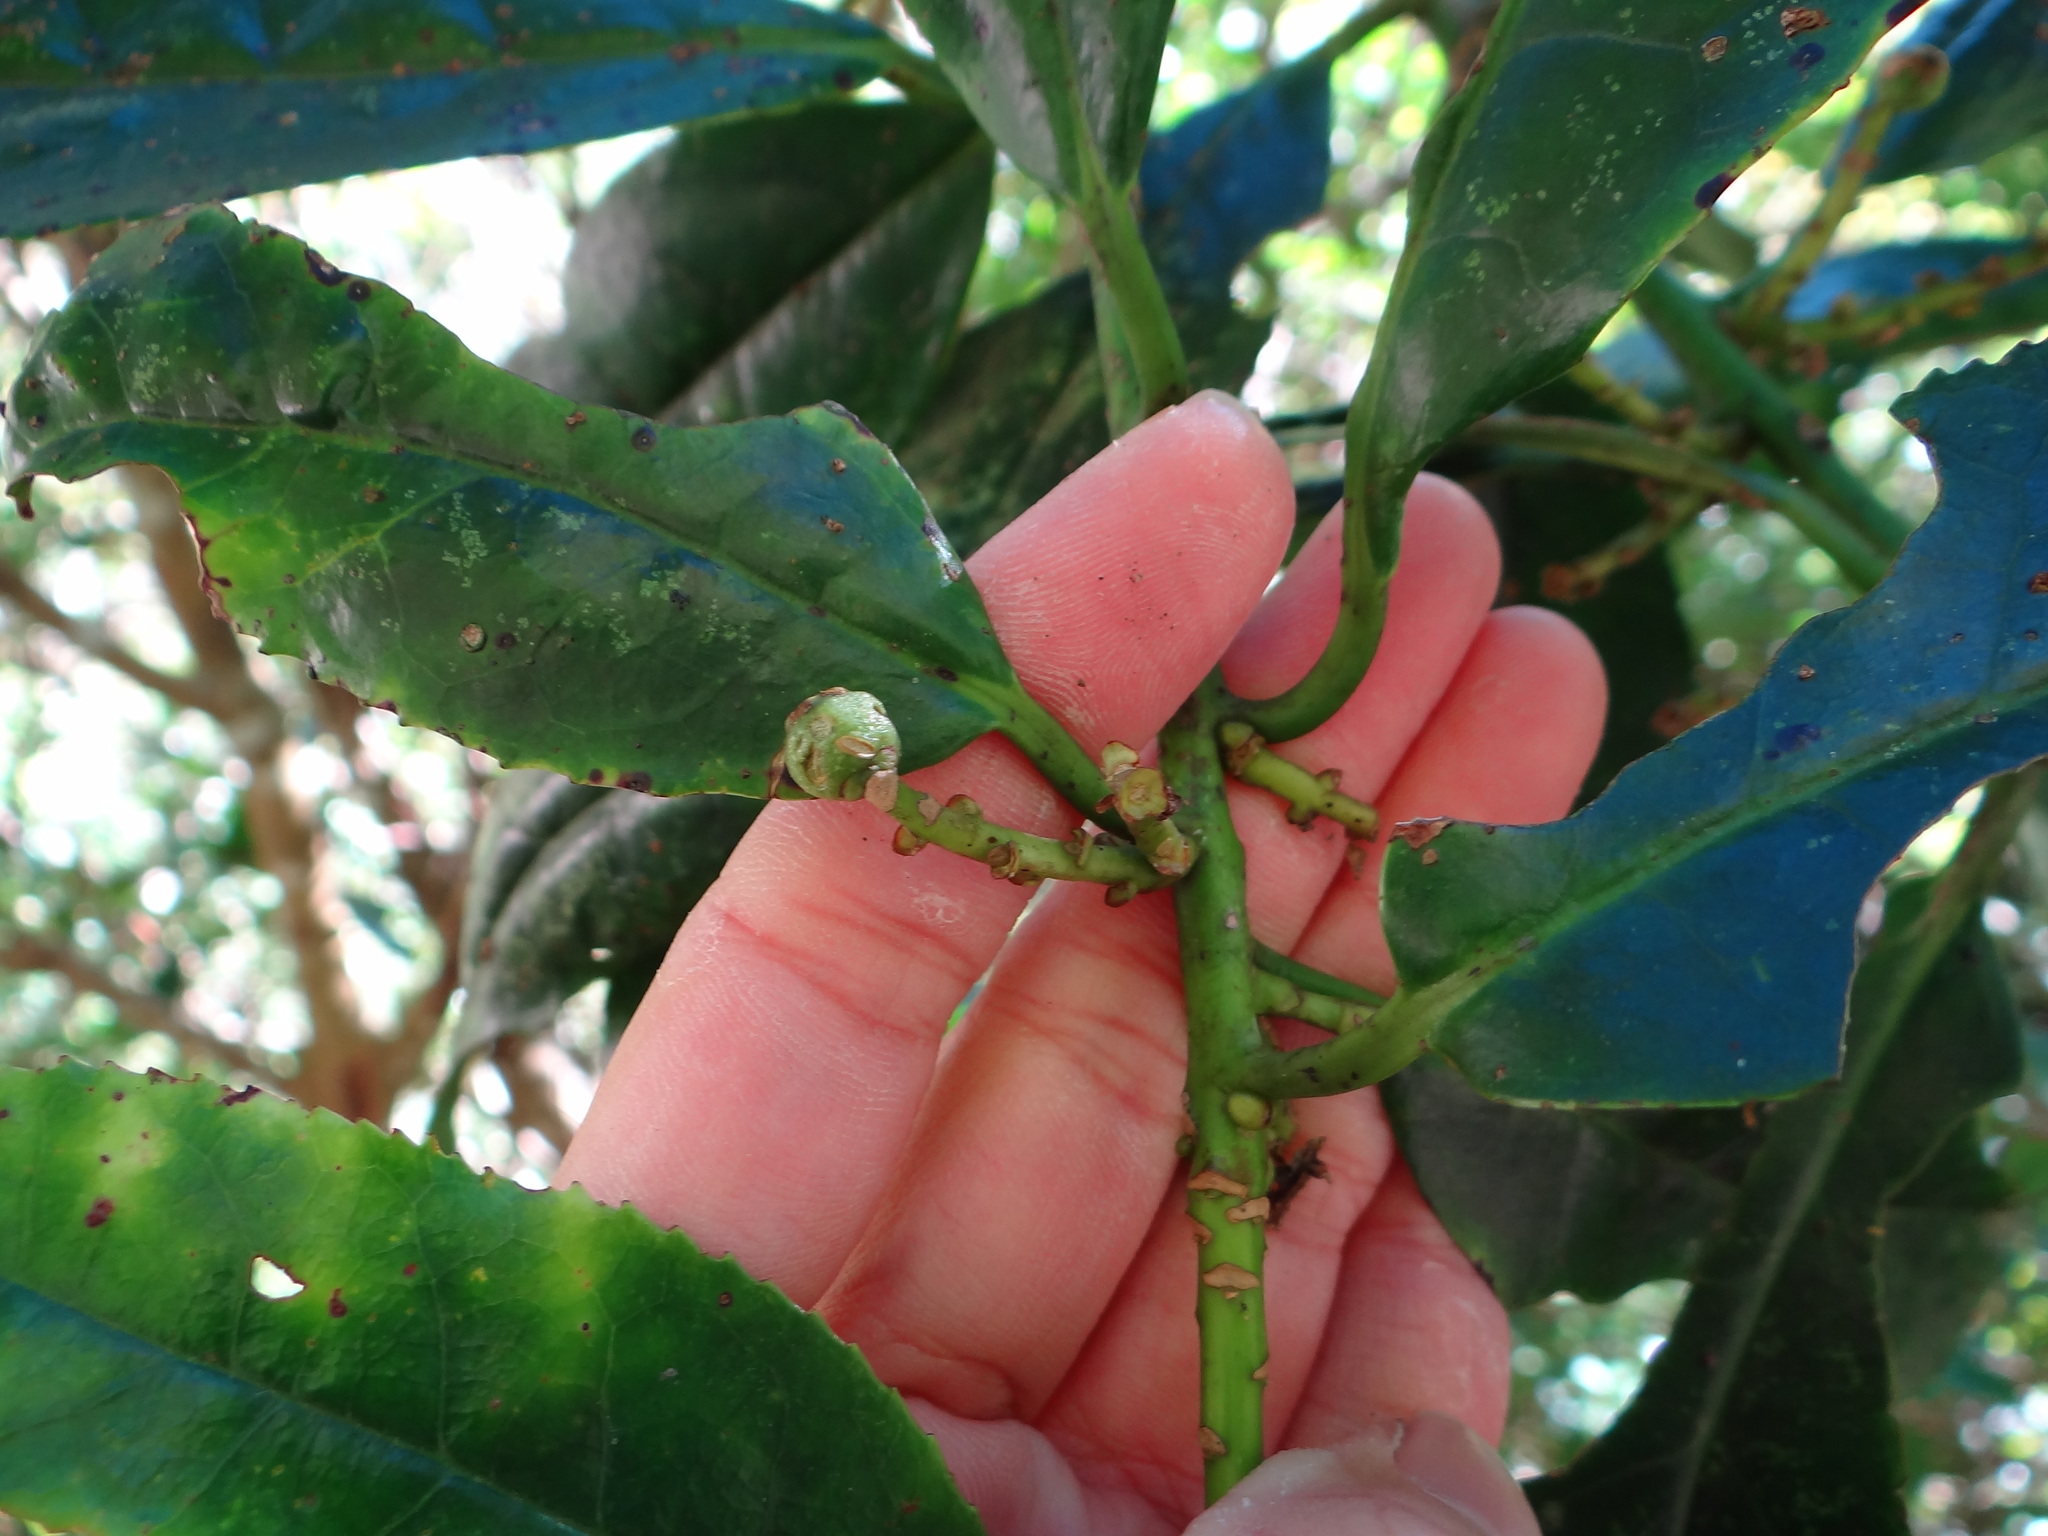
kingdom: Plantae
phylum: Tracheophyta
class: Magnoliopsida
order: Ericales
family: Symplocaceae
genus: Symplocos
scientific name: Symplocos acuminata
